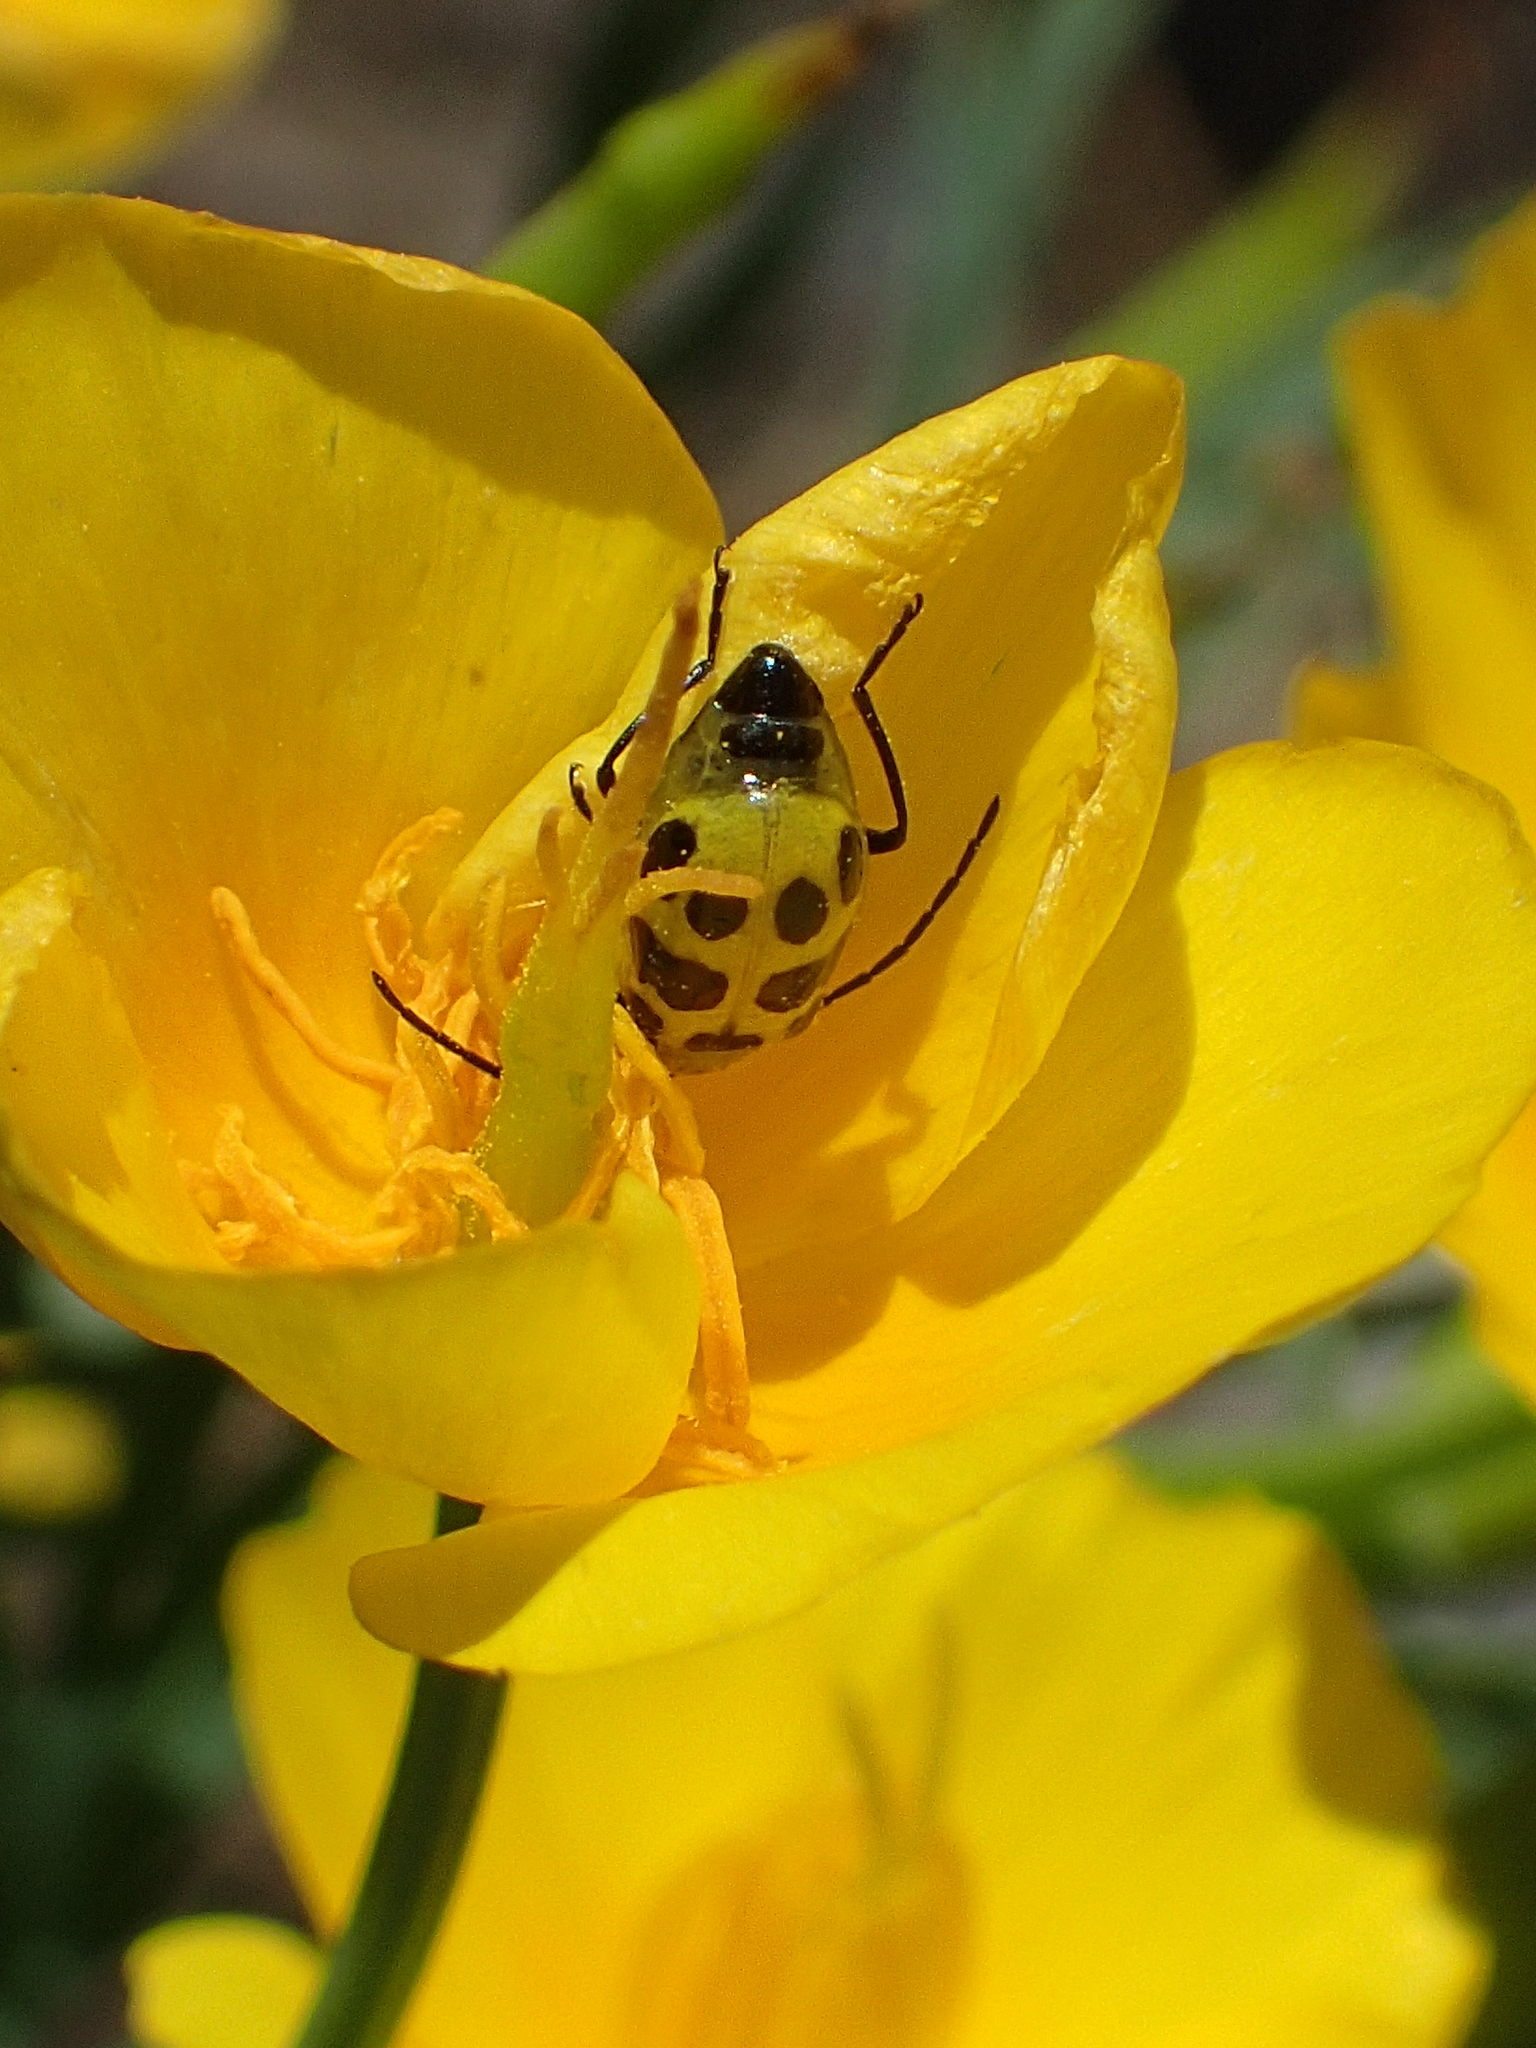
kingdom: Animalia
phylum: Arthropoda
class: Insecta
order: Coleoptera
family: Chrysomelidae
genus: Diabrotica
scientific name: Diabrotica undecimpunctata
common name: Spotted cucumber beetle
